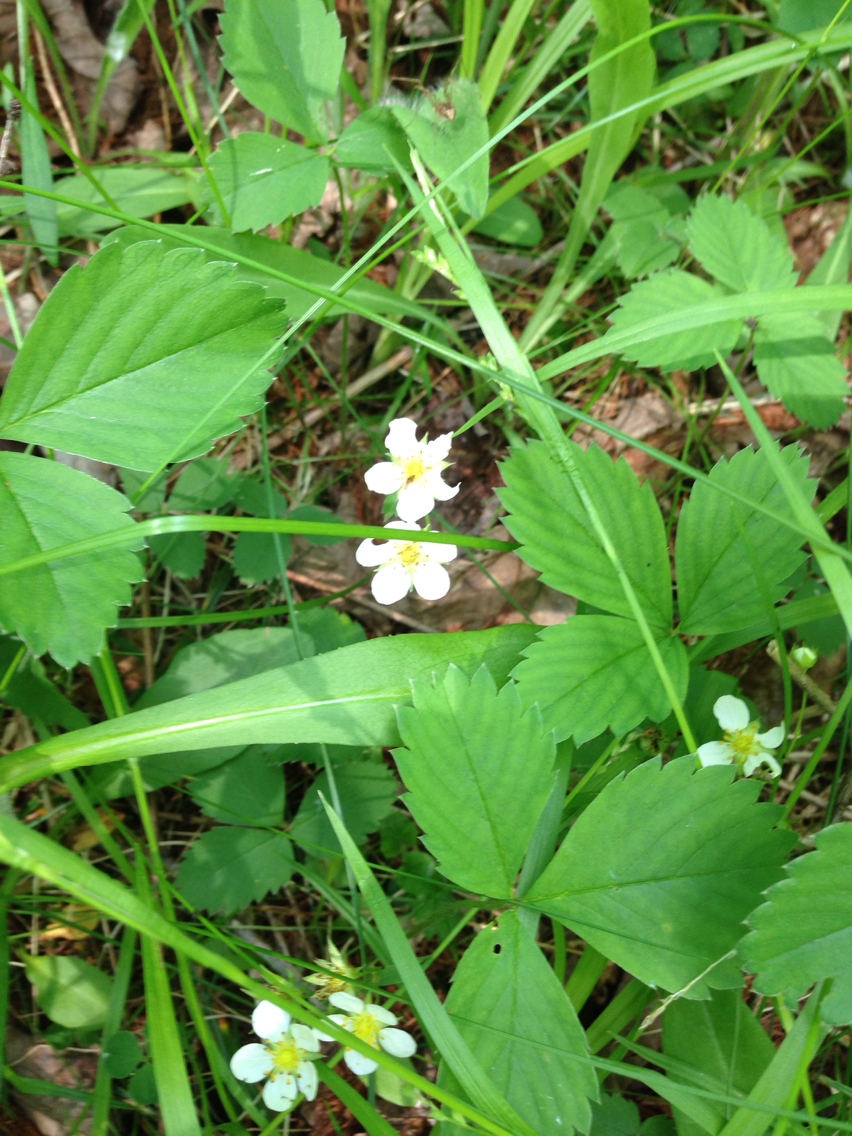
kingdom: Plantae
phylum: Tracheophyta
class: Magnoliopsida
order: Rosales
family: Rosaceae
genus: Fragaria
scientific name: Fragaria virginiana
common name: Thickleaved wild strawberry
